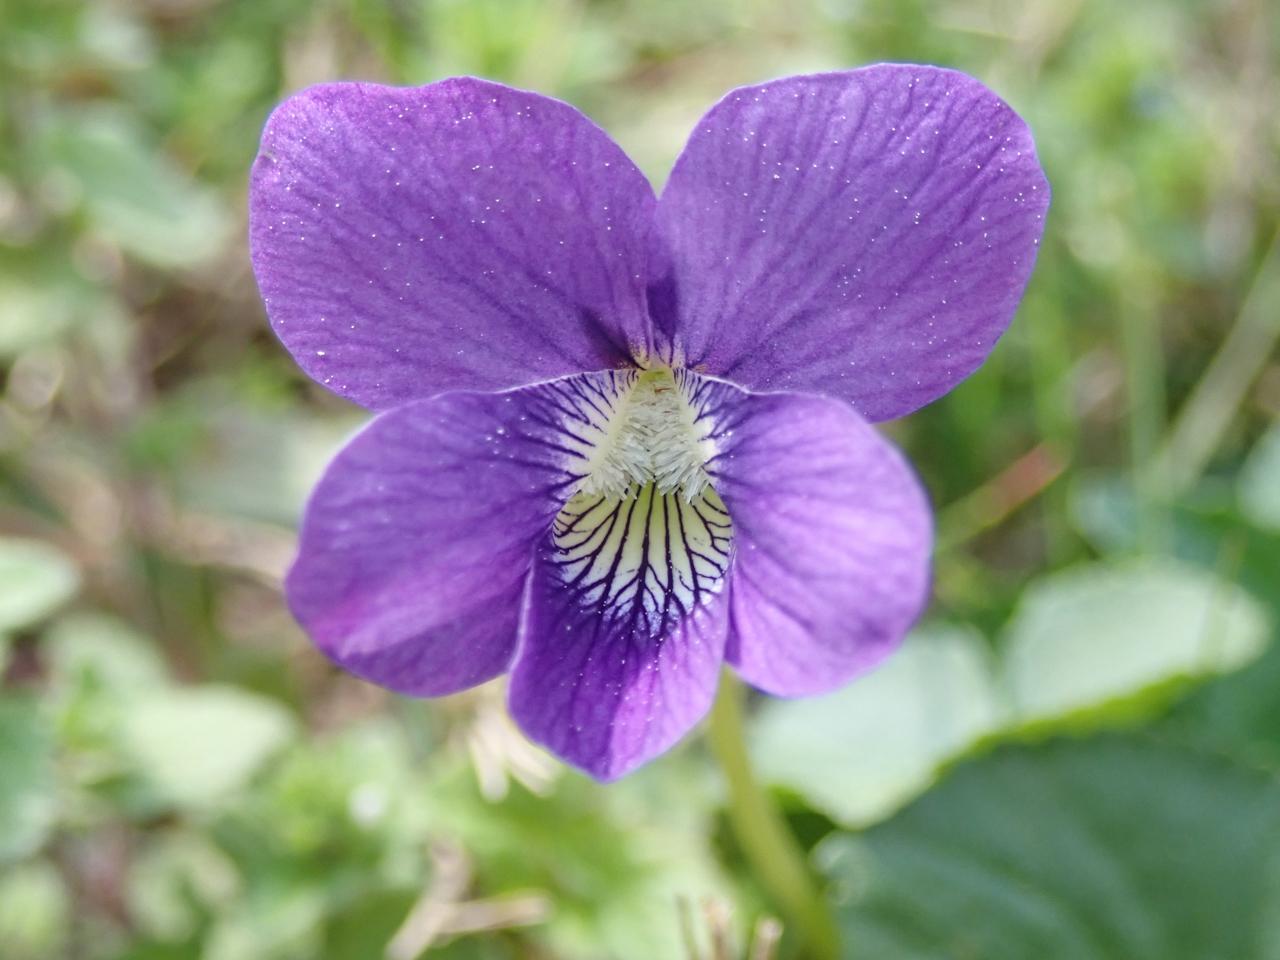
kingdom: Plantae
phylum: Tracheophyta
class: Magnoliopsida
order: Malpighiales
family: Violaceae
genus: Viola
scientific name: Viola sororia
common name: Dooryard violet
